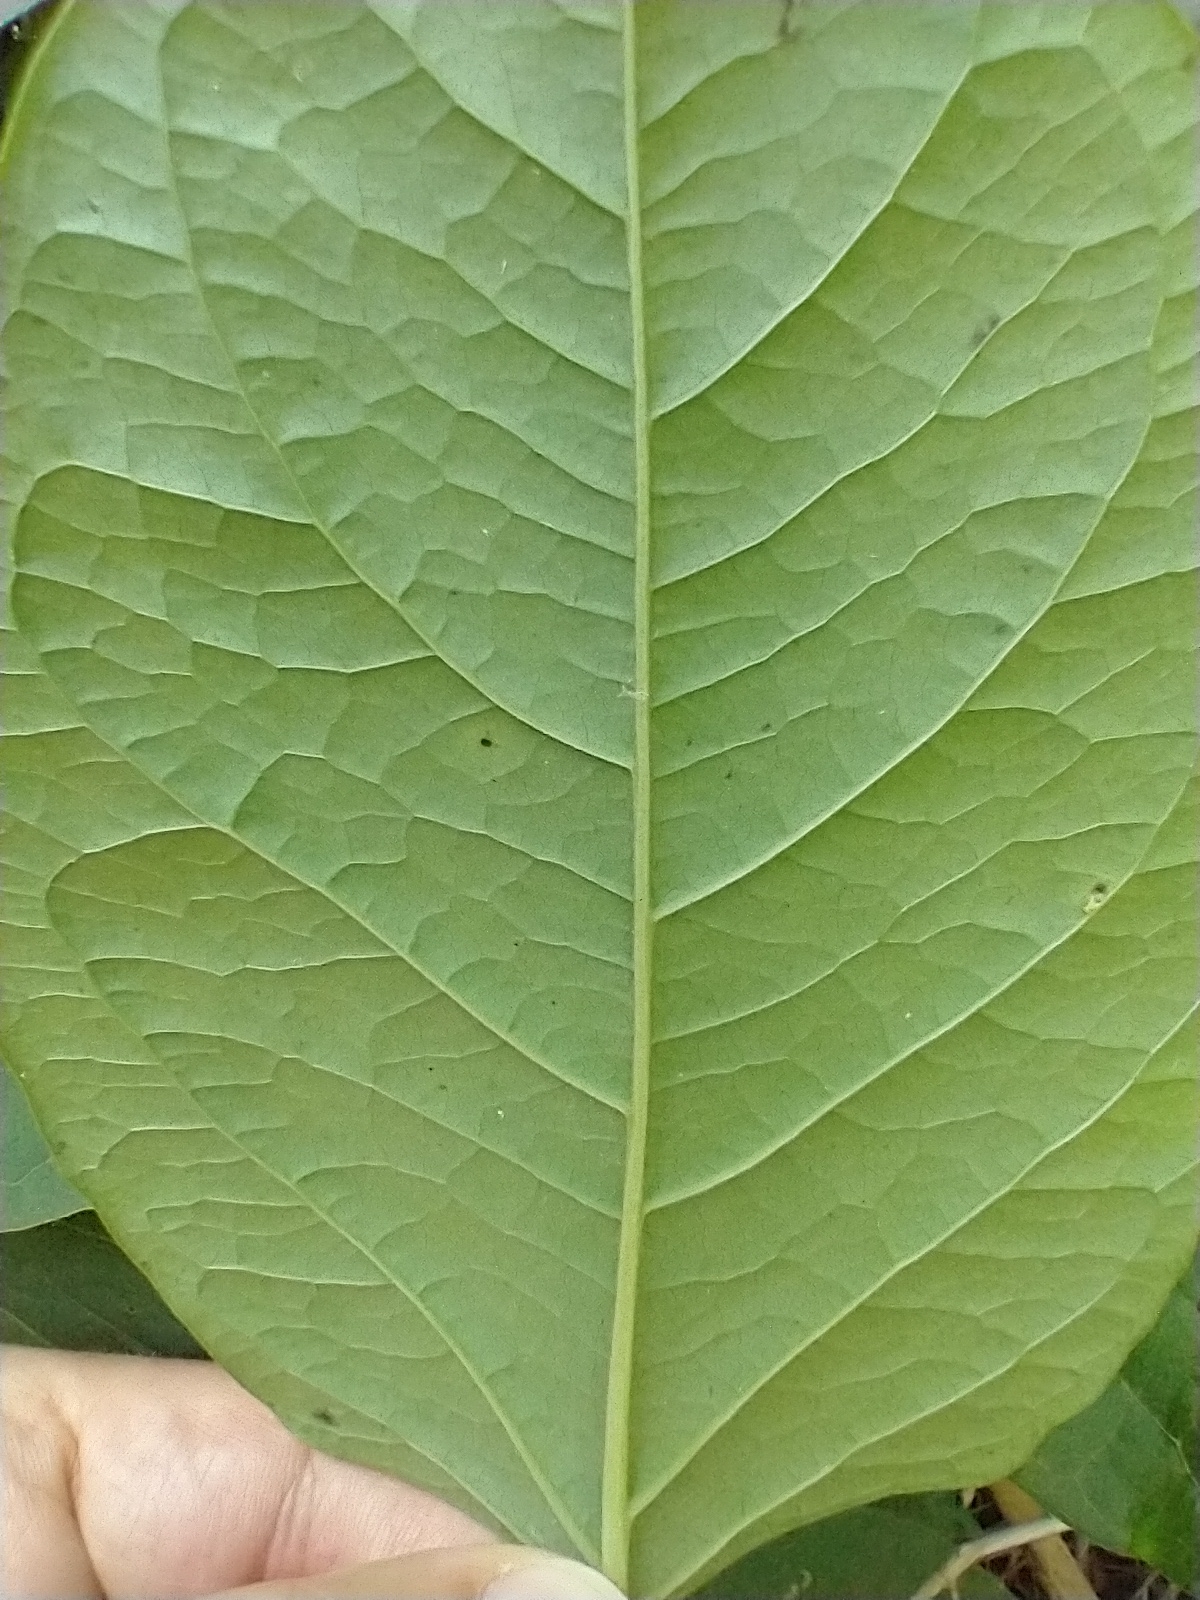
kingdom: Plantae
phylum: Tracheophyta
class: Magnoliopsida
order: Caryophyllales
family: Polygonaceae
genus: Reynoutria
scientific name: Reynoutria japonica
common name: Japanese knotweed
